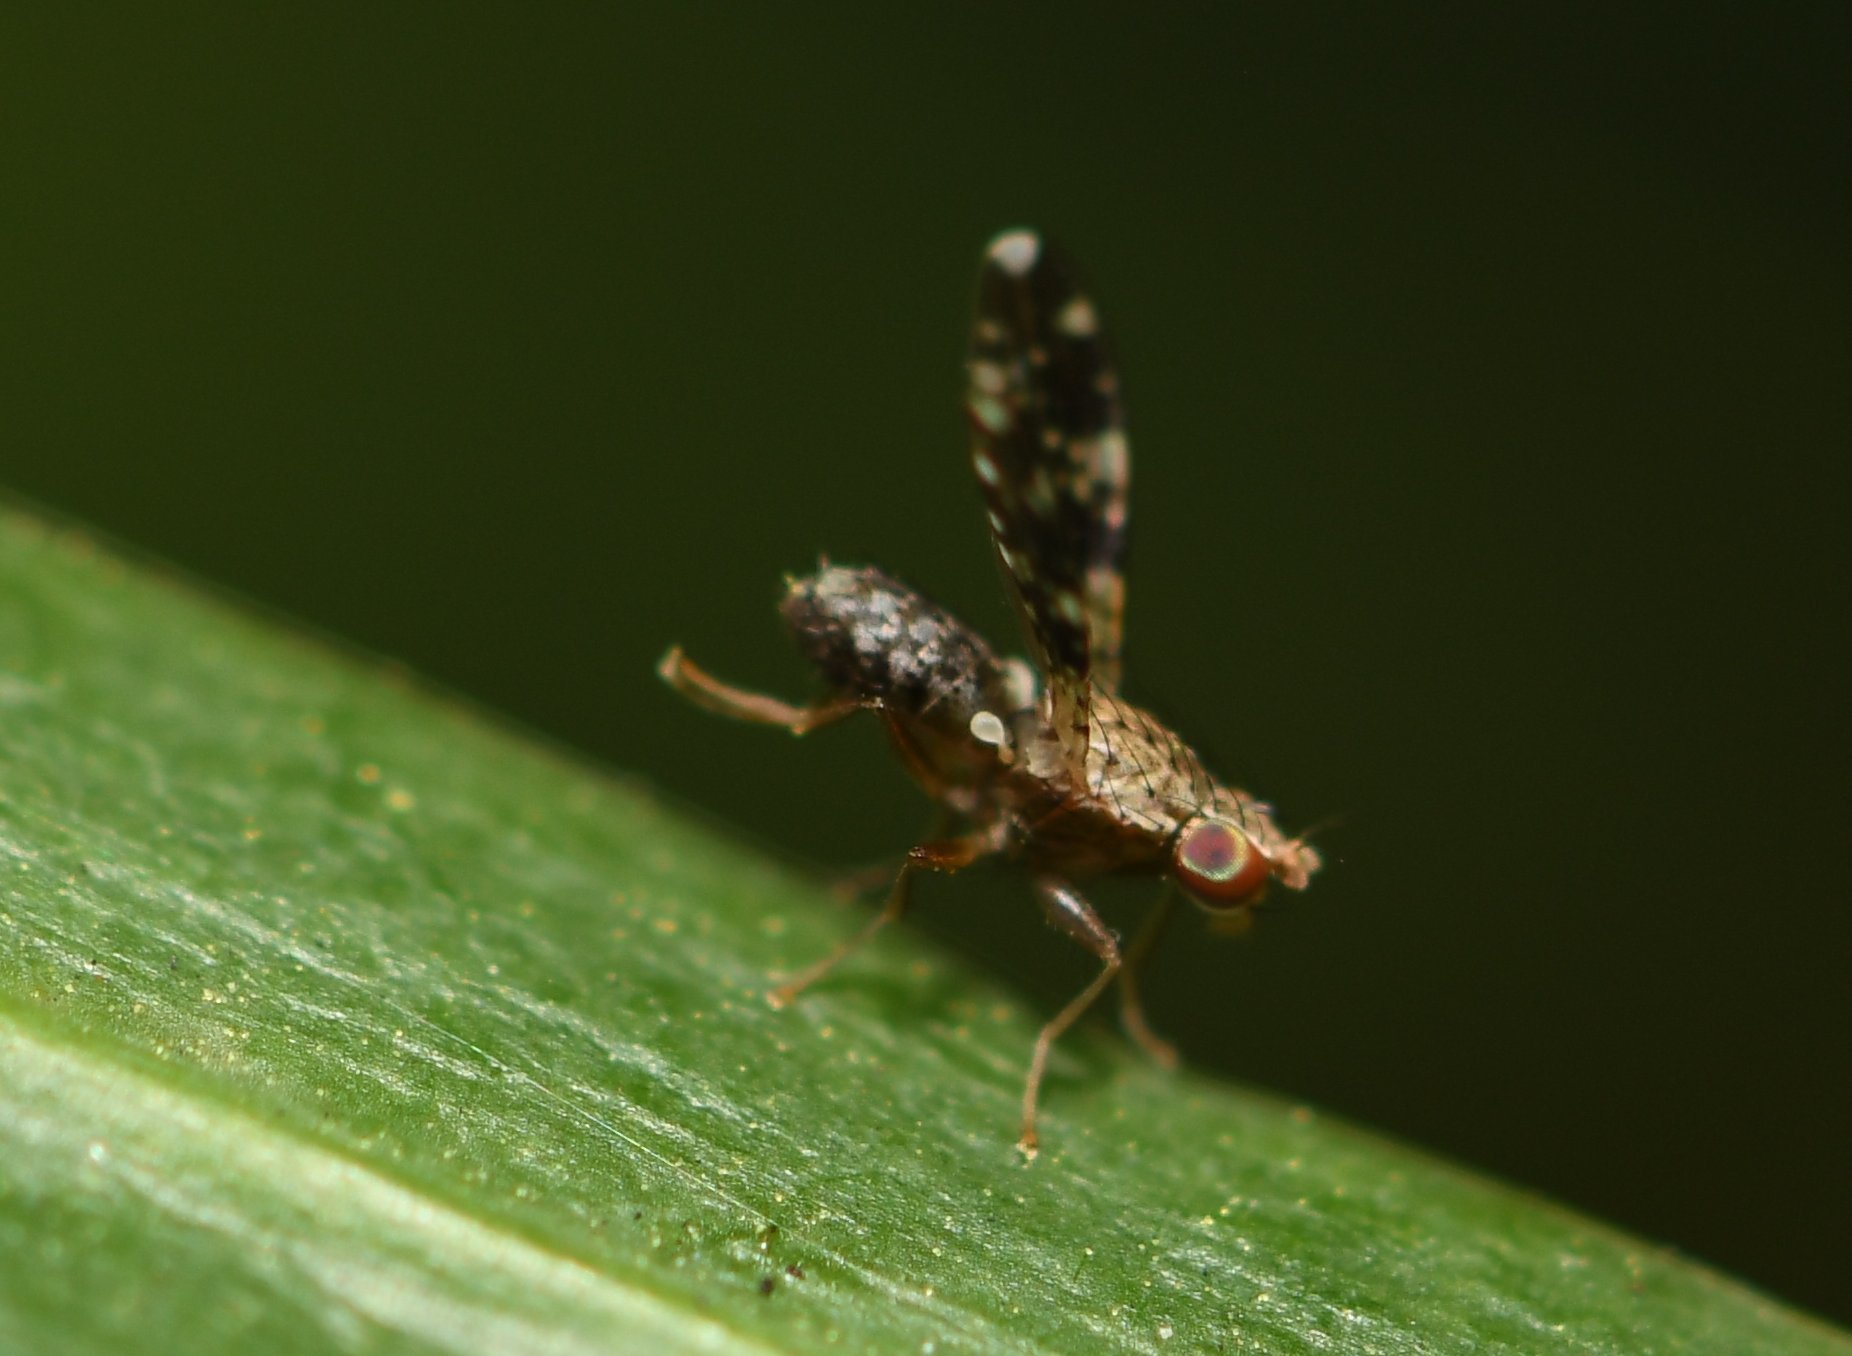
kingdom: Animalia
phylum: Arthropoda
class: Insecta
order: Diptera
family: Heleomyzidae
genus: Trixoscelis
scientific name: Trixoscelis ornata
